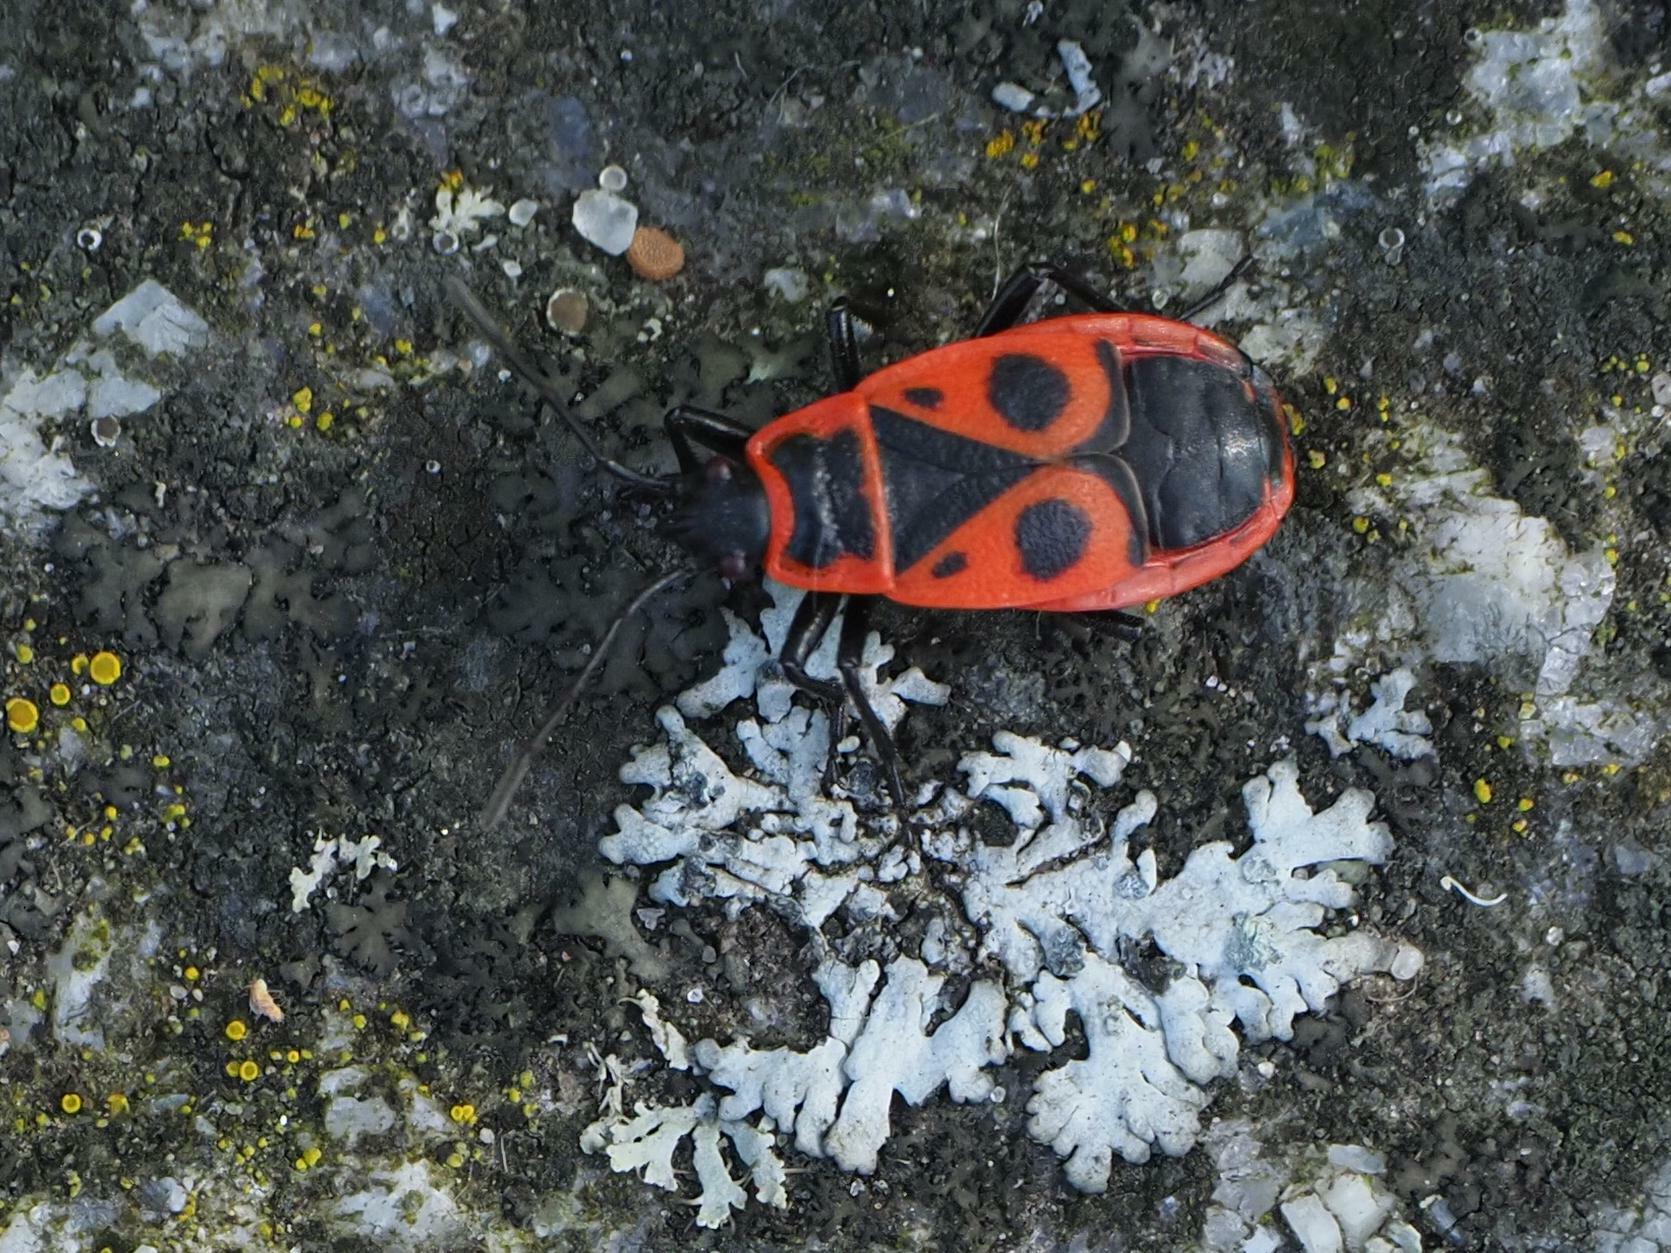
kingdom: Animalia
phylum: Arthropoda
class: Insecta
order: Hemiptera
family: Pyrrhocoridae
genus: Pyrrhocoris
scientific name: Pyrrhocoris apterus
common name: Firebug
